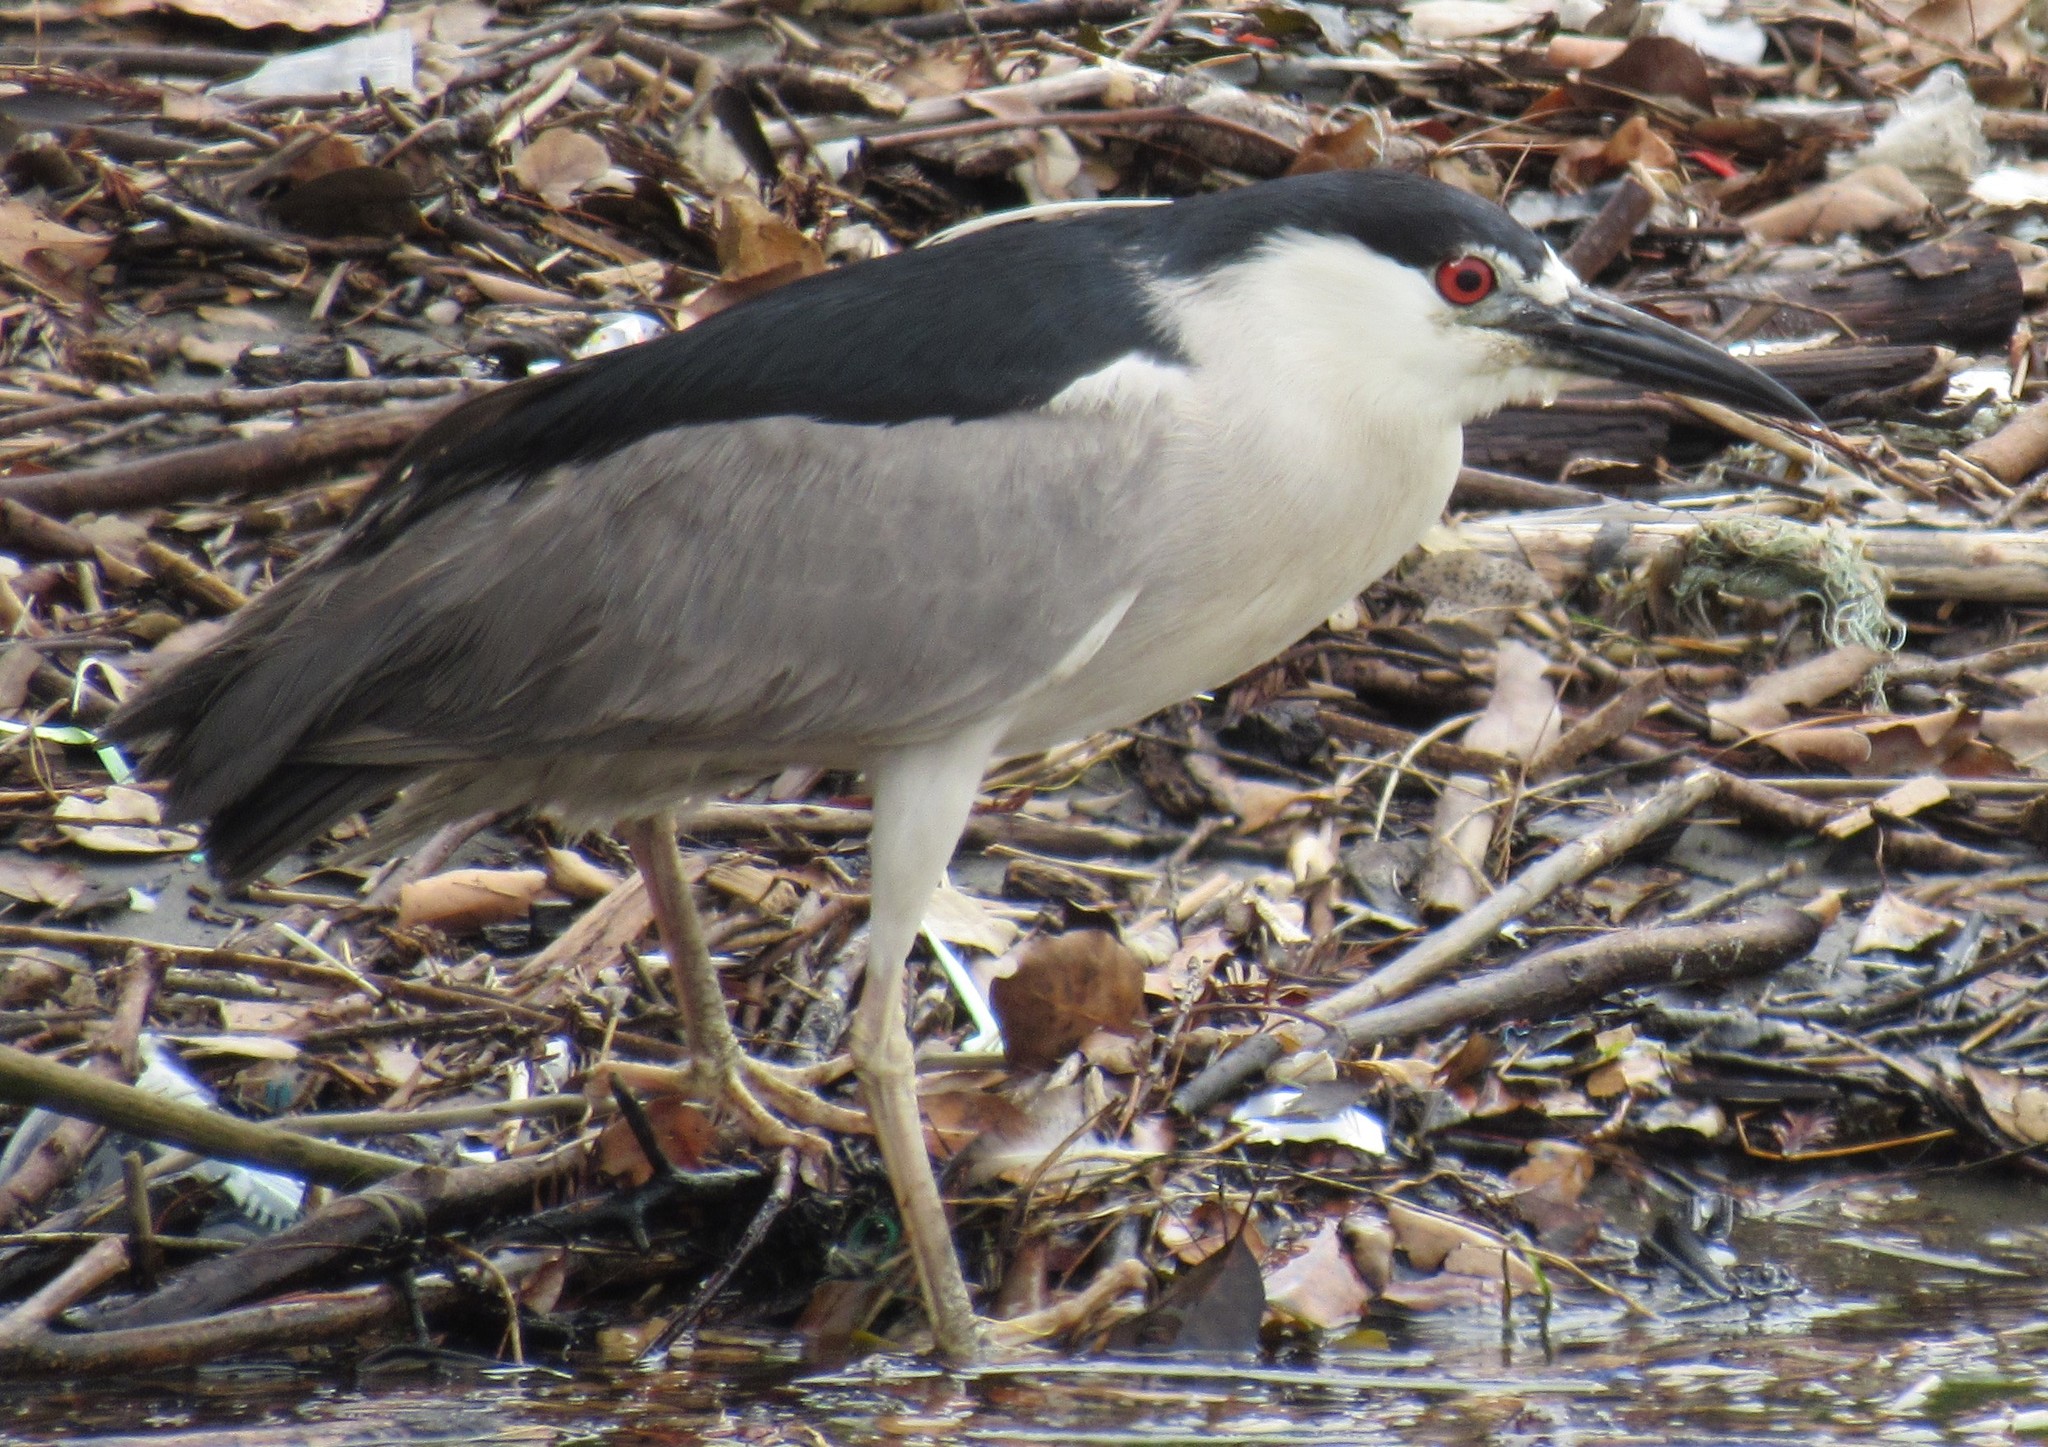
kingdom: Animalia
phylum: Chordata
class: Aves
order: Pelecaniformes
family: Ardeidae
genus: Nycticorax
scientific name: Nycticorax nycticorax
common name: Black-crowned night heron
